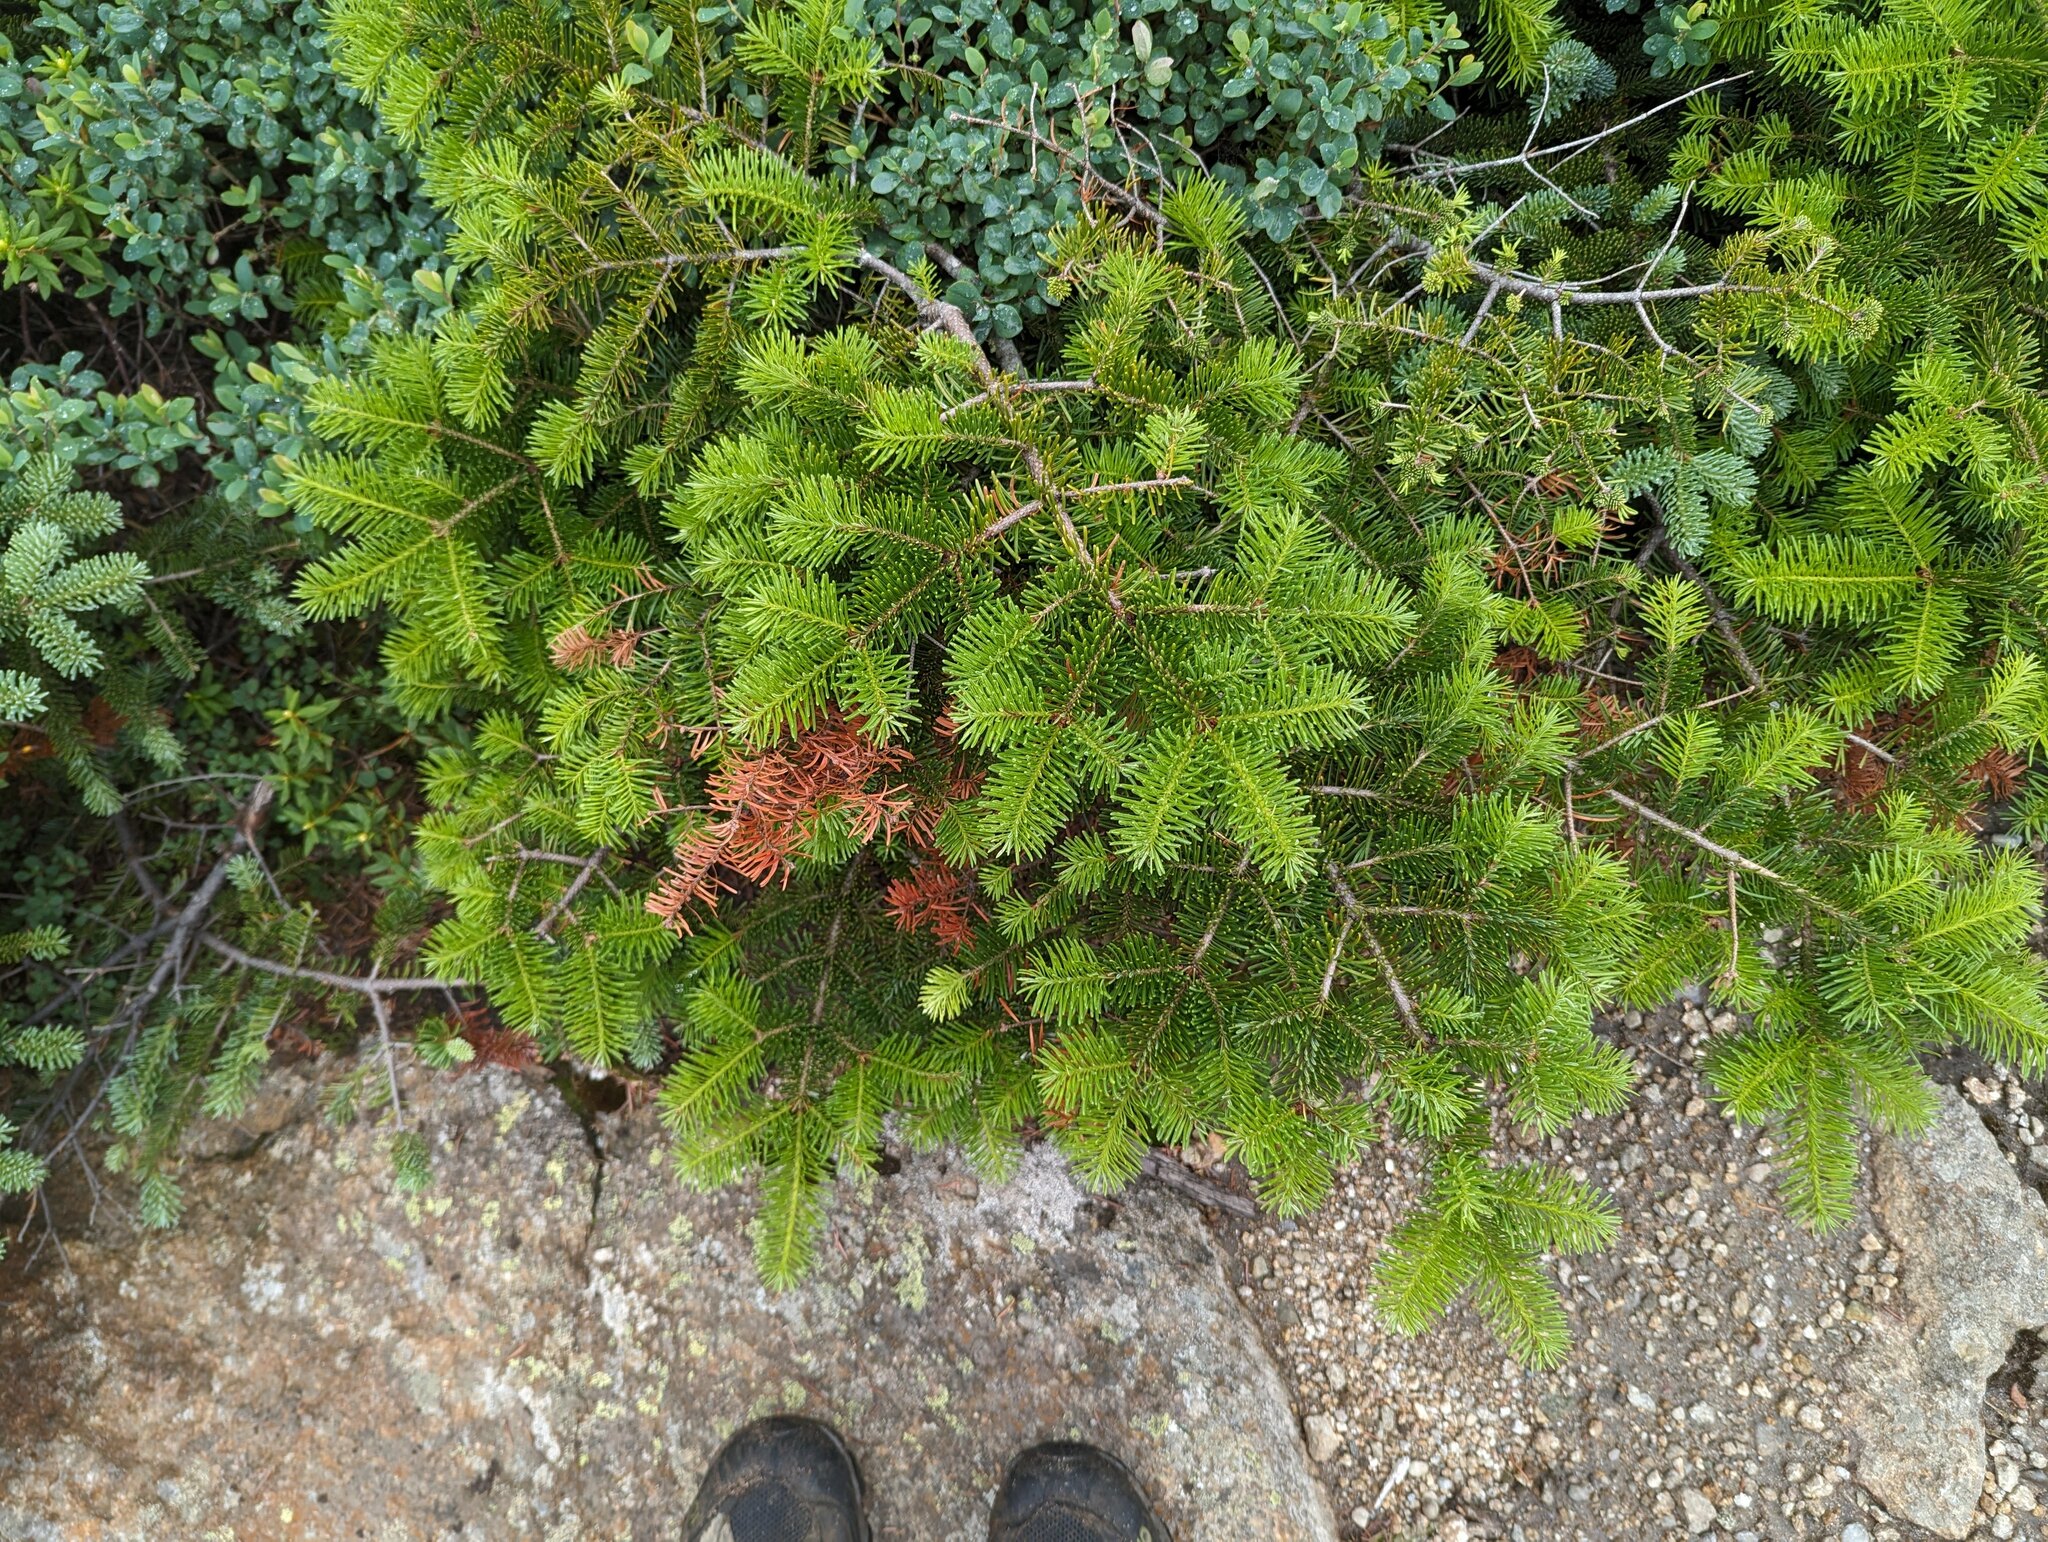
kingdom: Plantae
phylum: Tracheophyta
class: Pinopsida
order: Pinales
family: Pinaceae
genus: Abies
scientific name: Abies balsamea
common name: Balsam fir
